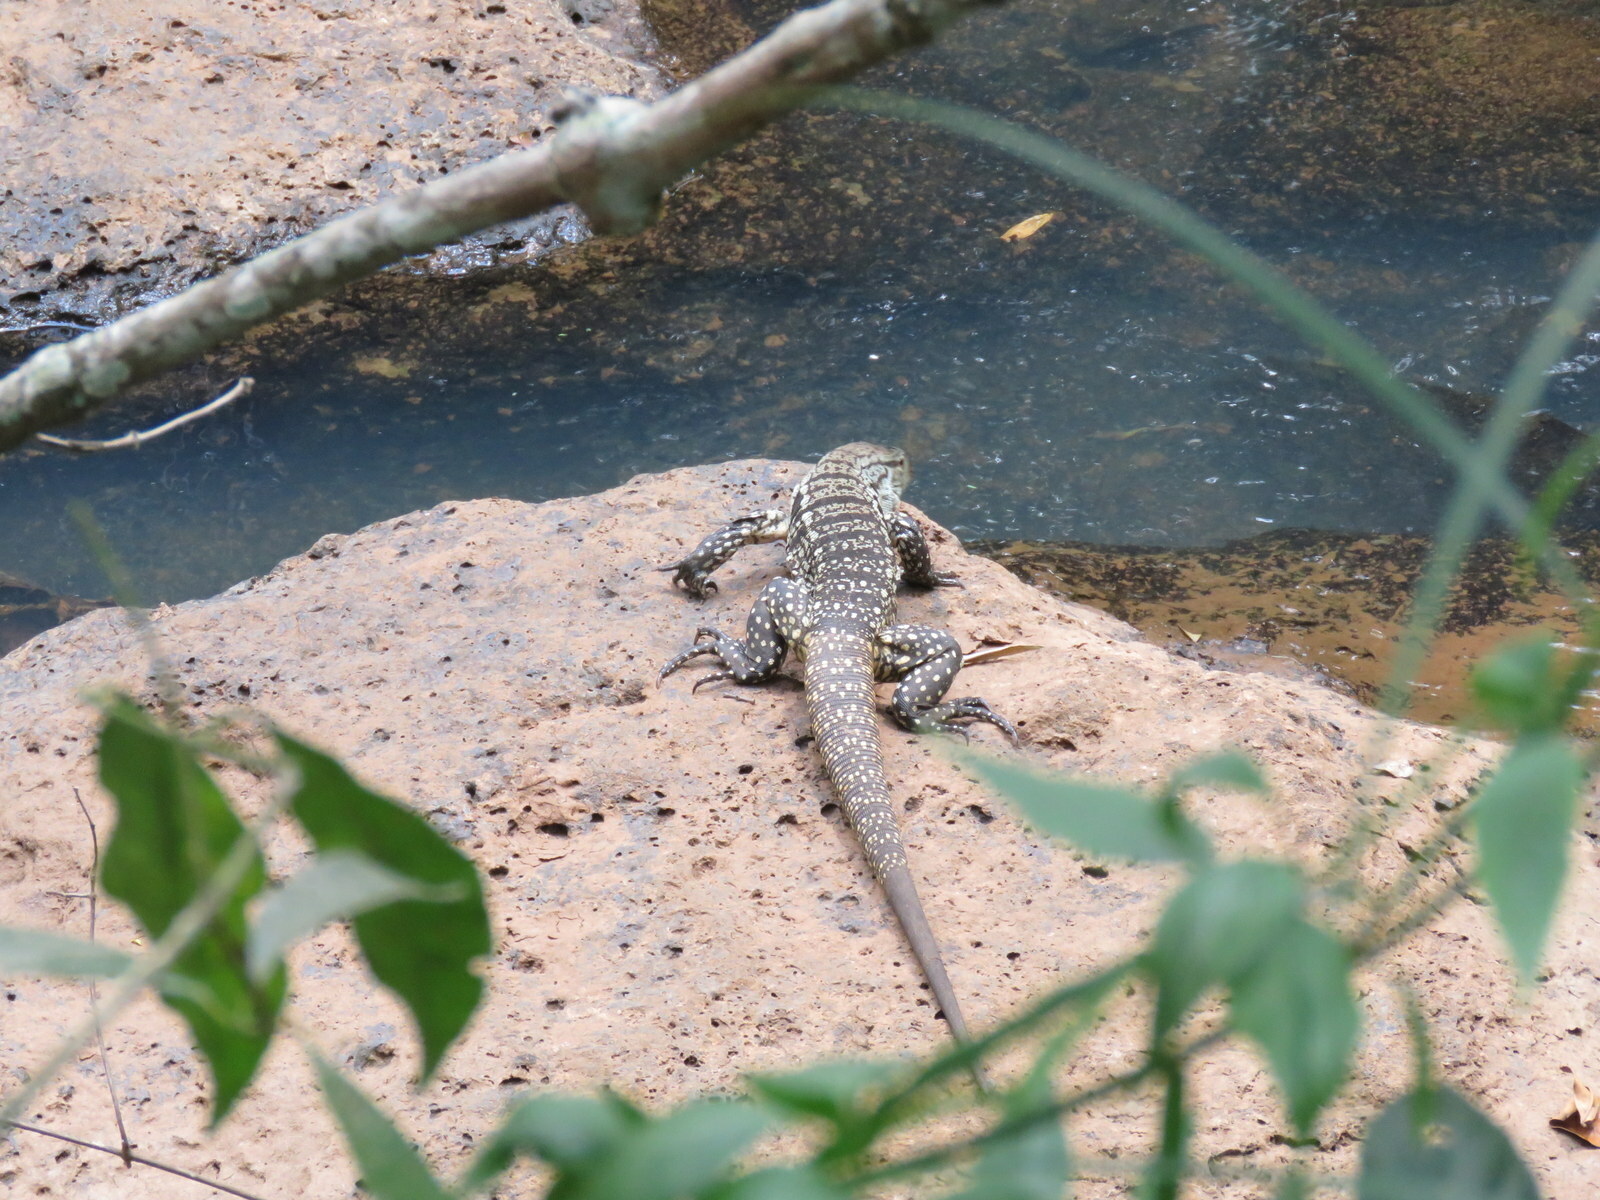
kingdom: Animalia
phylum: Chordata
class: Squamata
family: Teiidae
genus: Salvator
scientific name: Salvator merianae
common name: Argentine black and white tegu
